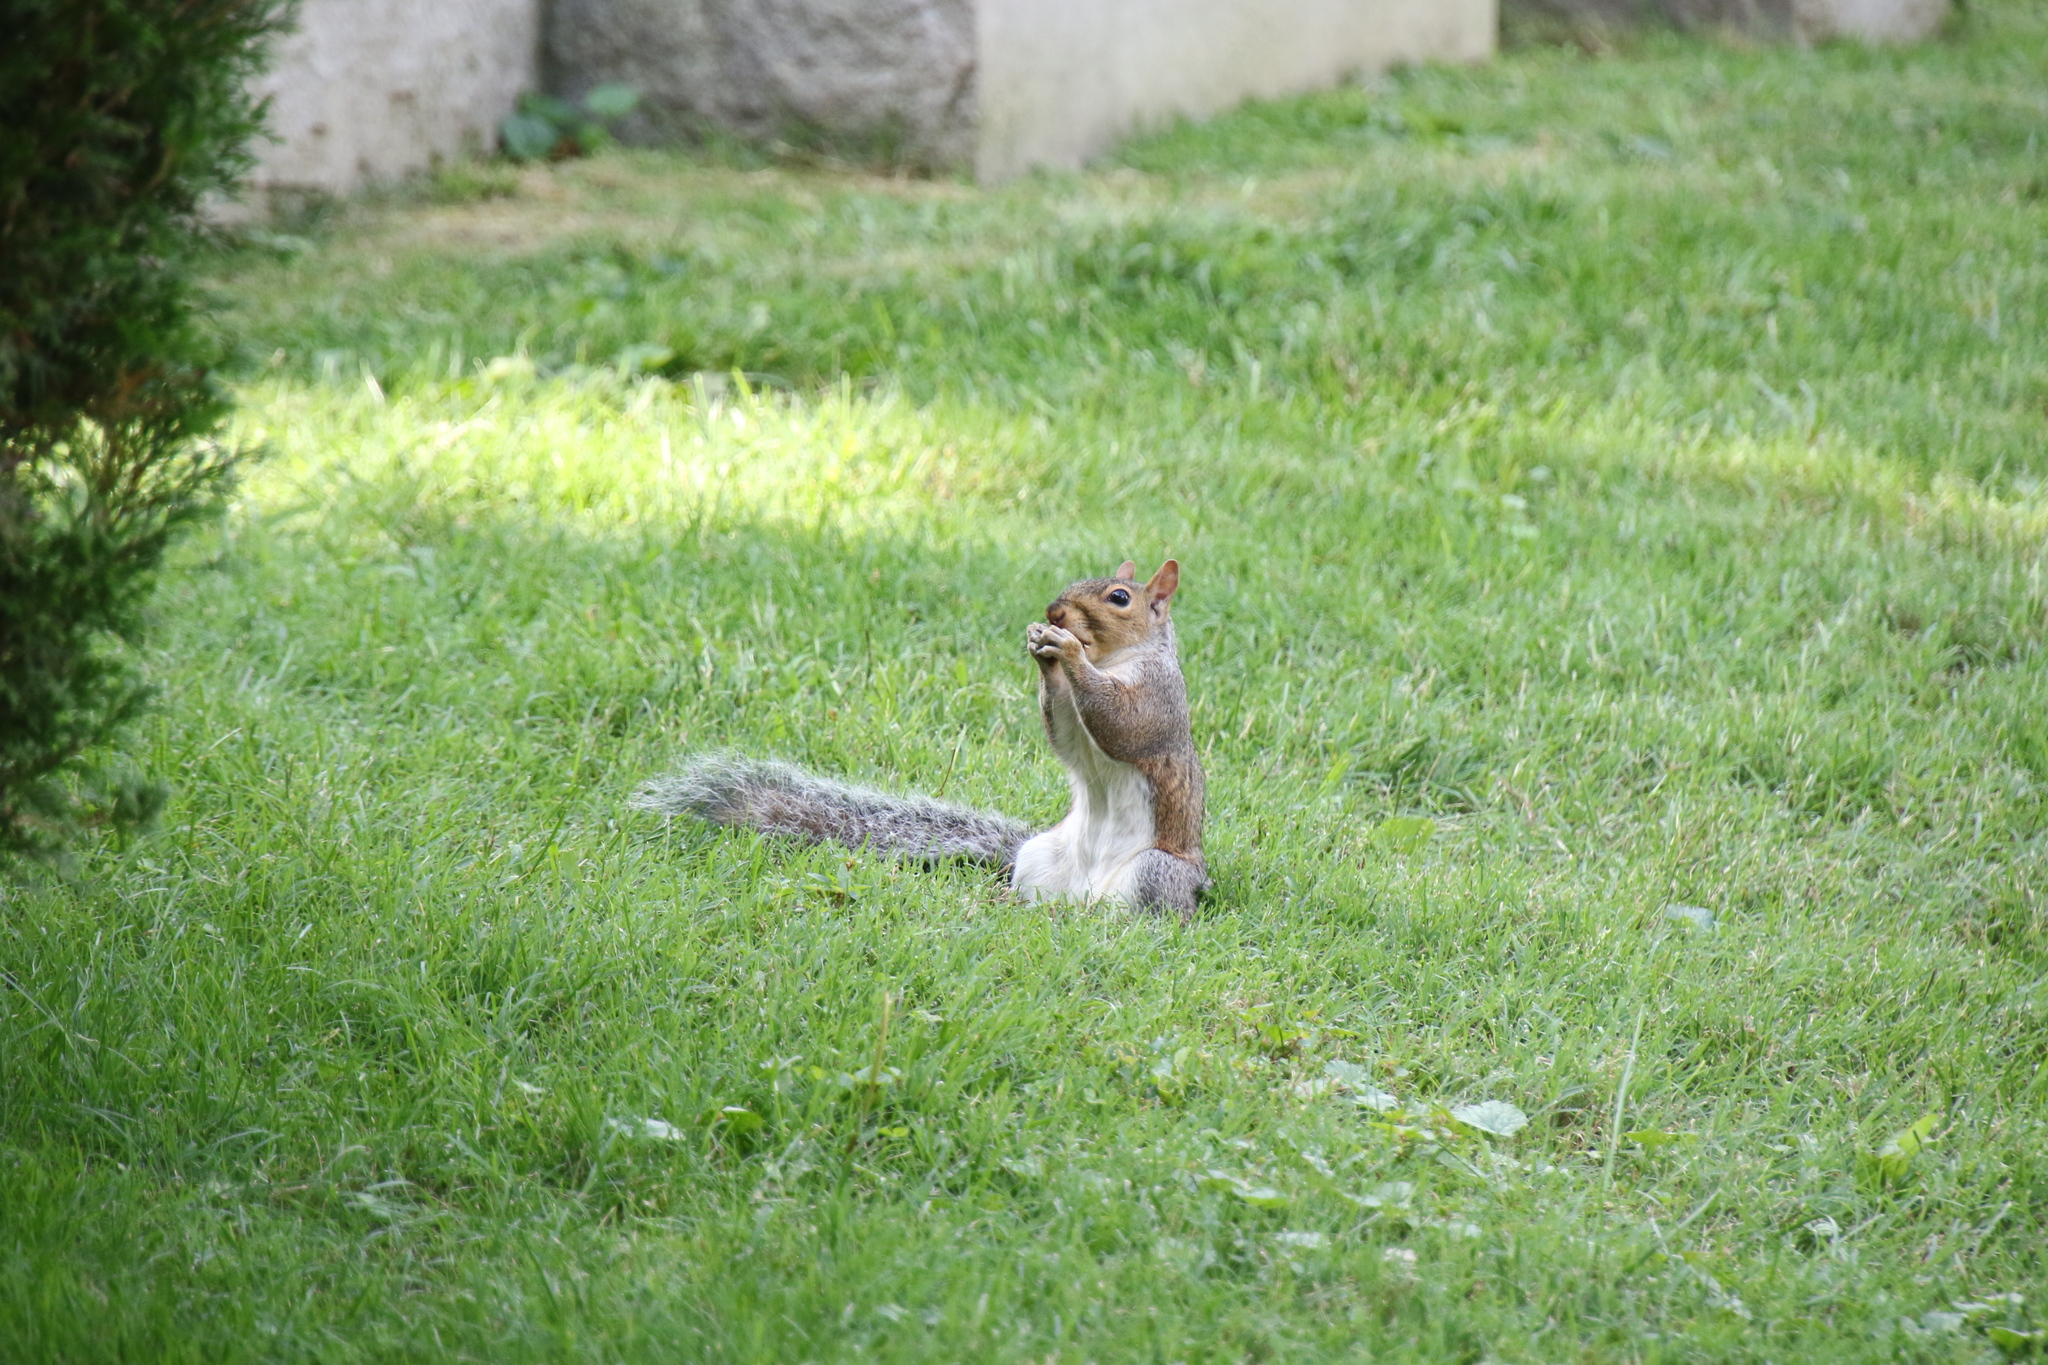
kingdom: Animalia
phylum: Chordata
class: Mammalia
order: Rodentia
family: Sciuridae
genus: Sciurus
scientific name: Sciurus carolinensis
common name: Eastern gray squirrel
